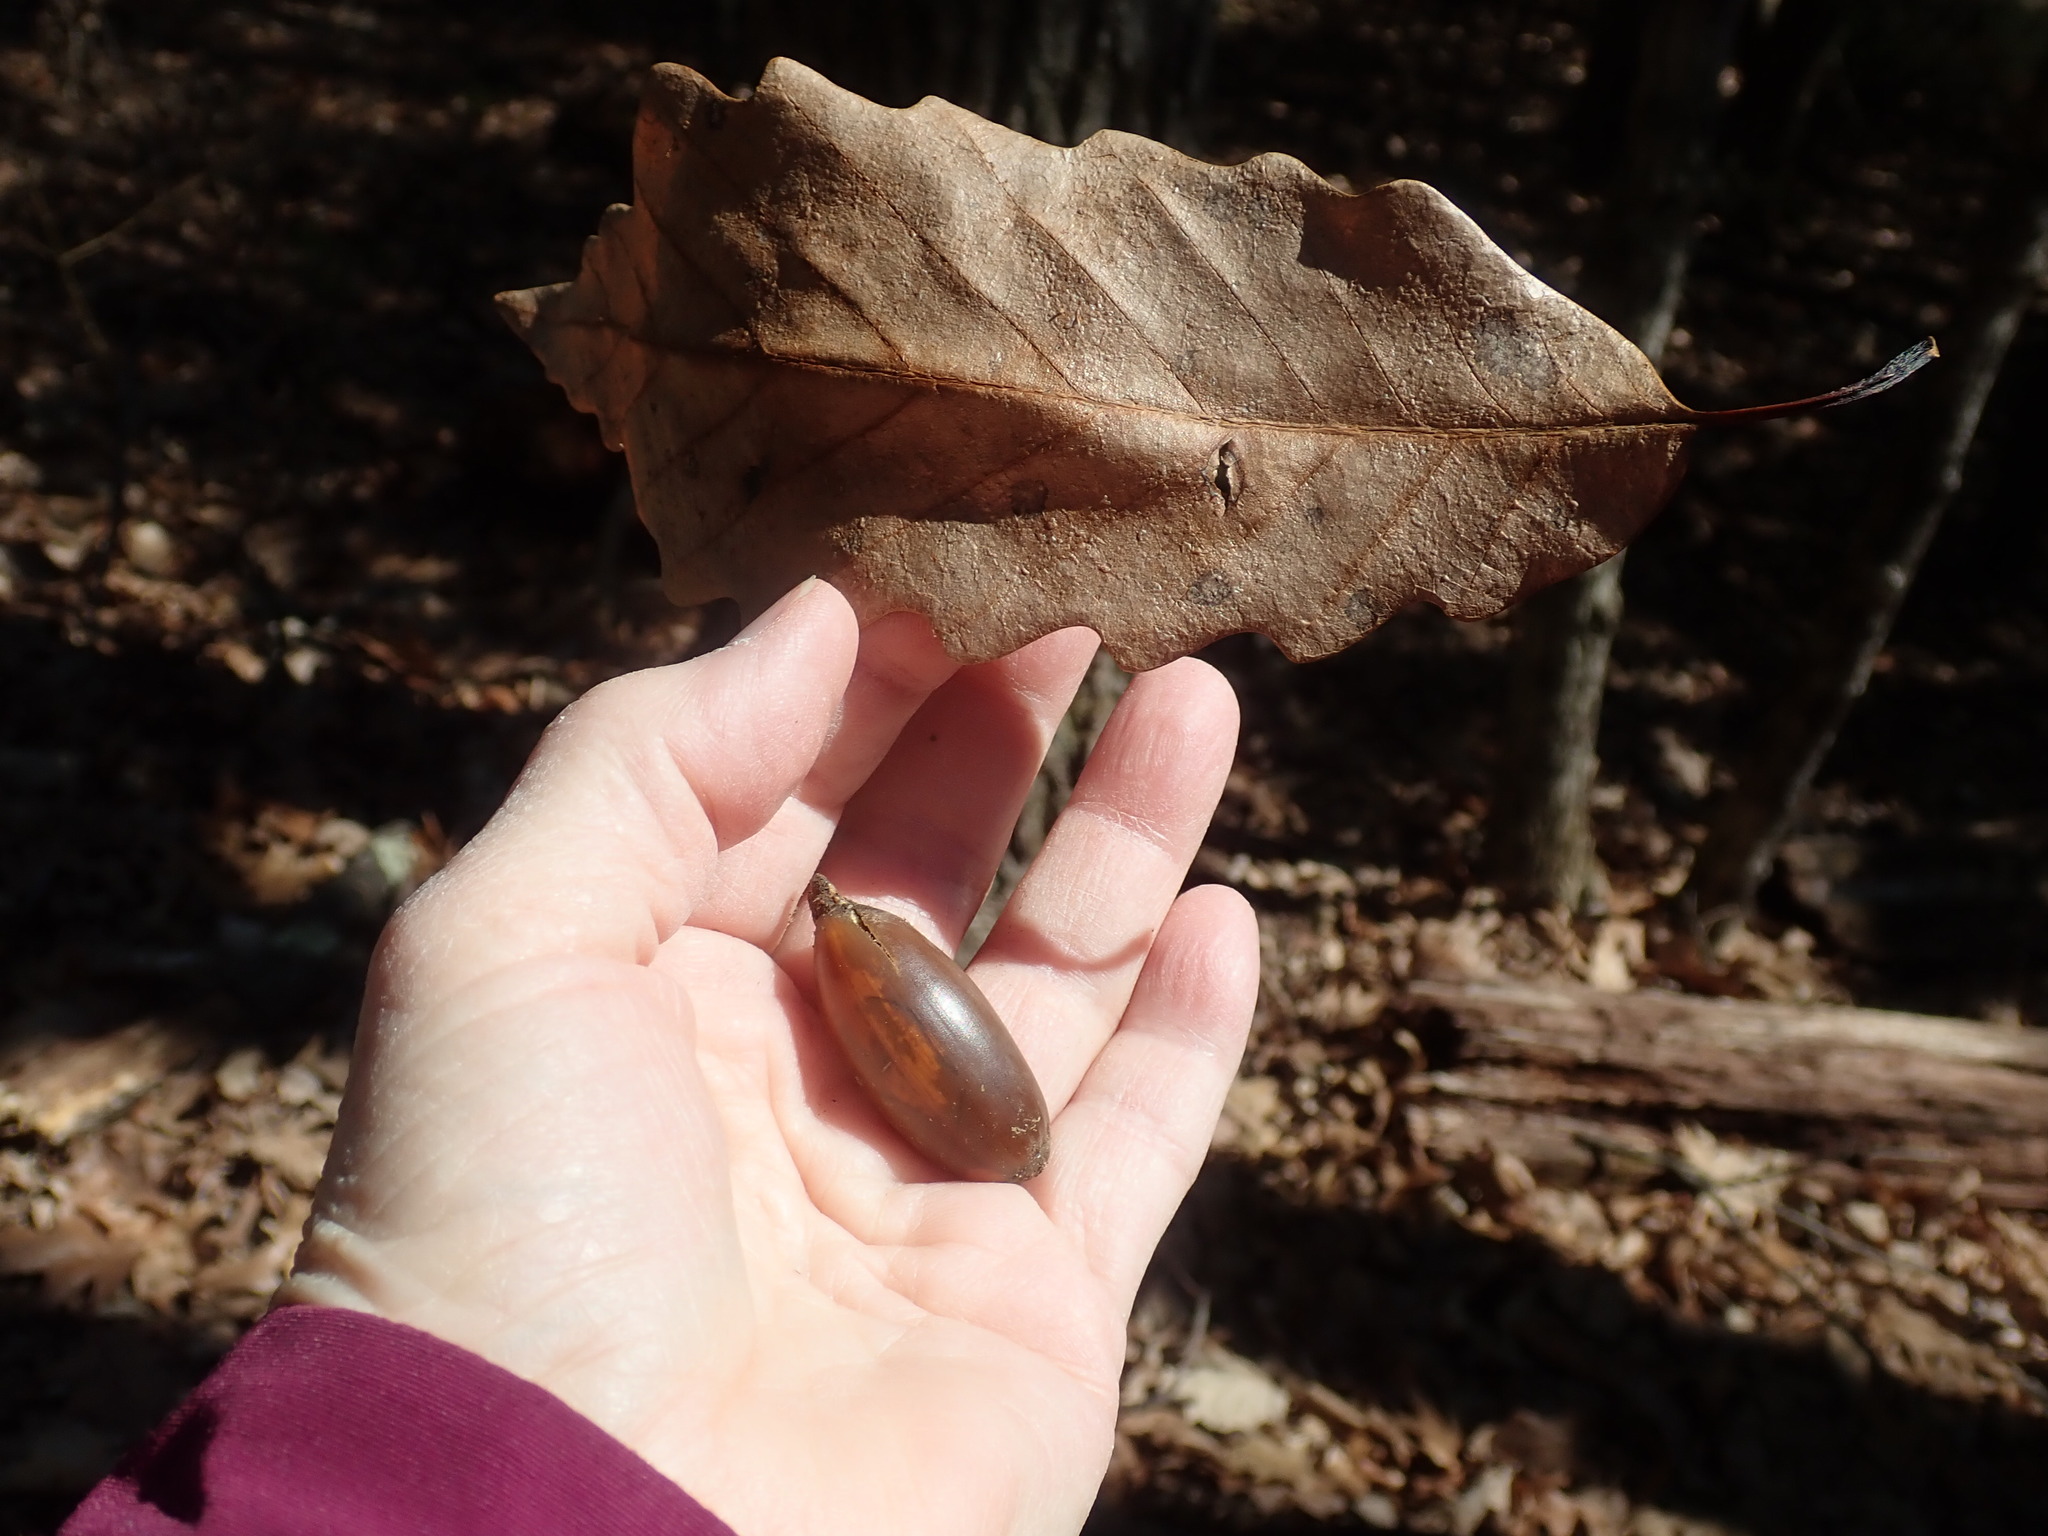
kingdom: Plantae
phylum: Tracheophyta
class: Magnoliopsida
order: Fagales
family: Fagaceae
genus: Quercus
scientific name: Quercus montana
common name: Chestnut oak
